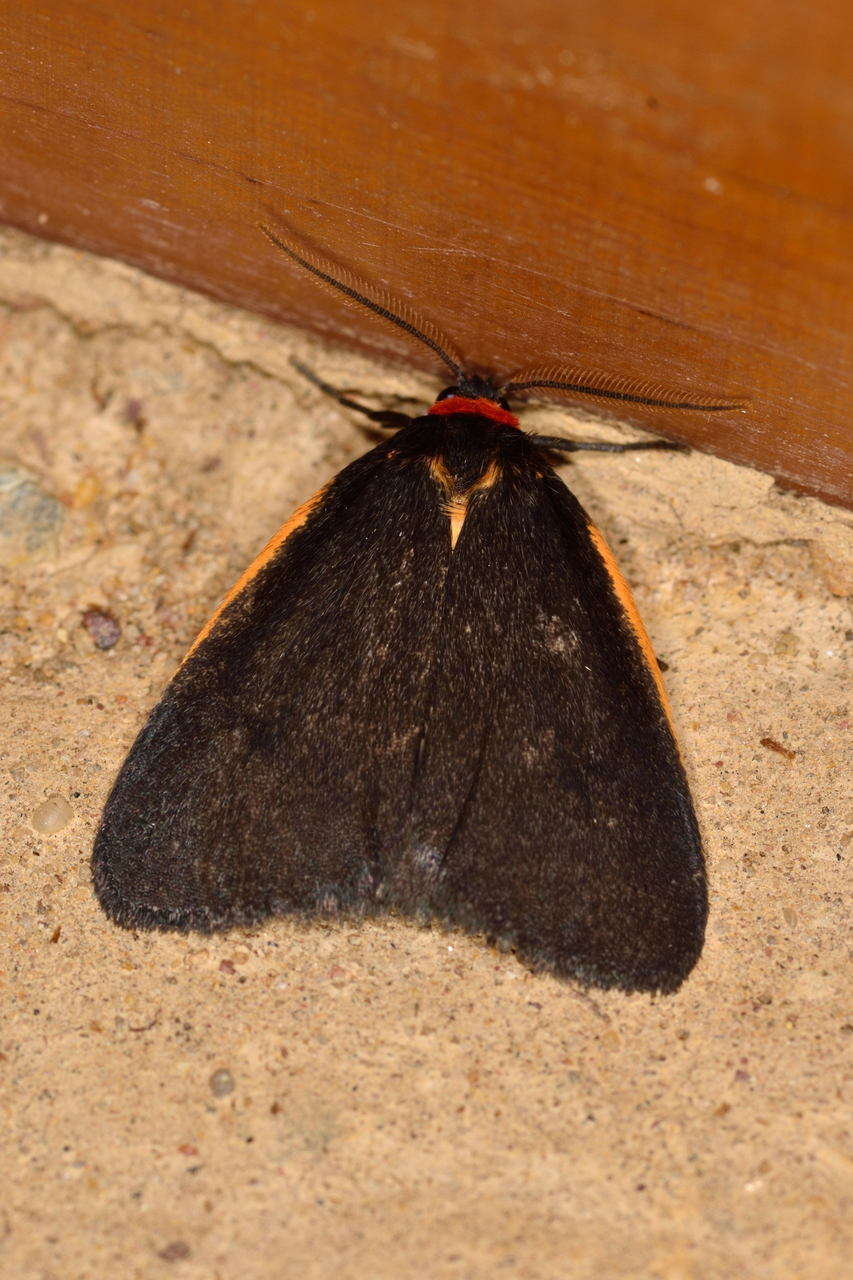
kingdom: Animalia
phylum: Arthropoda
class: Insecta
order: Lepidoptera
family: Erebidae
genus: Castulo
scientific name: Castulo doubledayi
